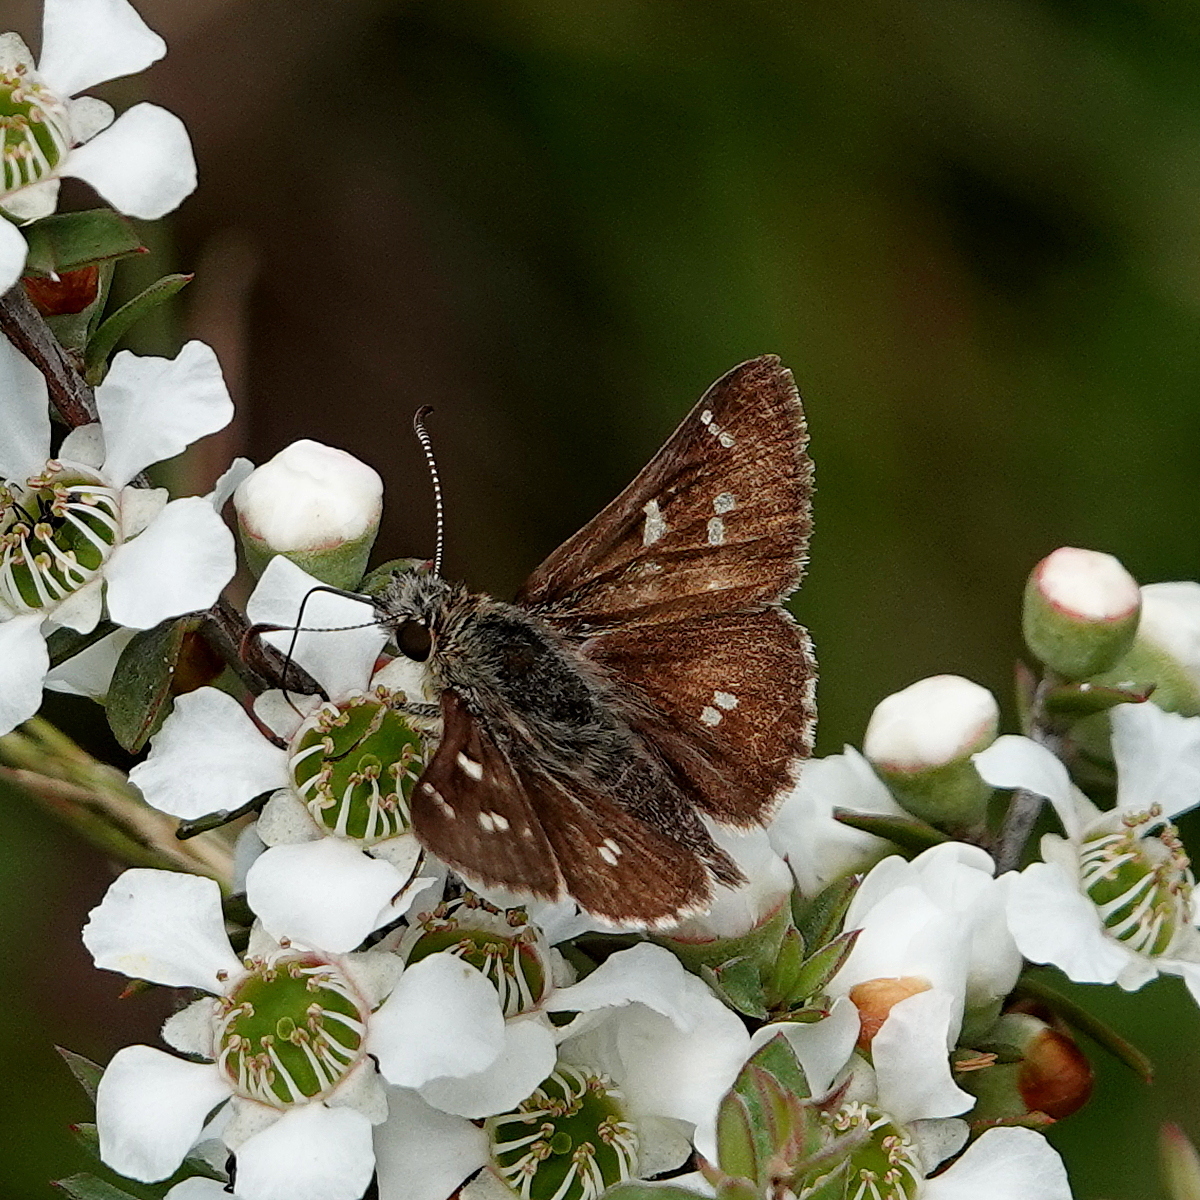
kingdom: Animalia
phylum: Arthropoda
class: Insecta
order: Lepidoptera
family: Hesperiidae
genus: Pasma
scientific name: Pasma tasmanicus
